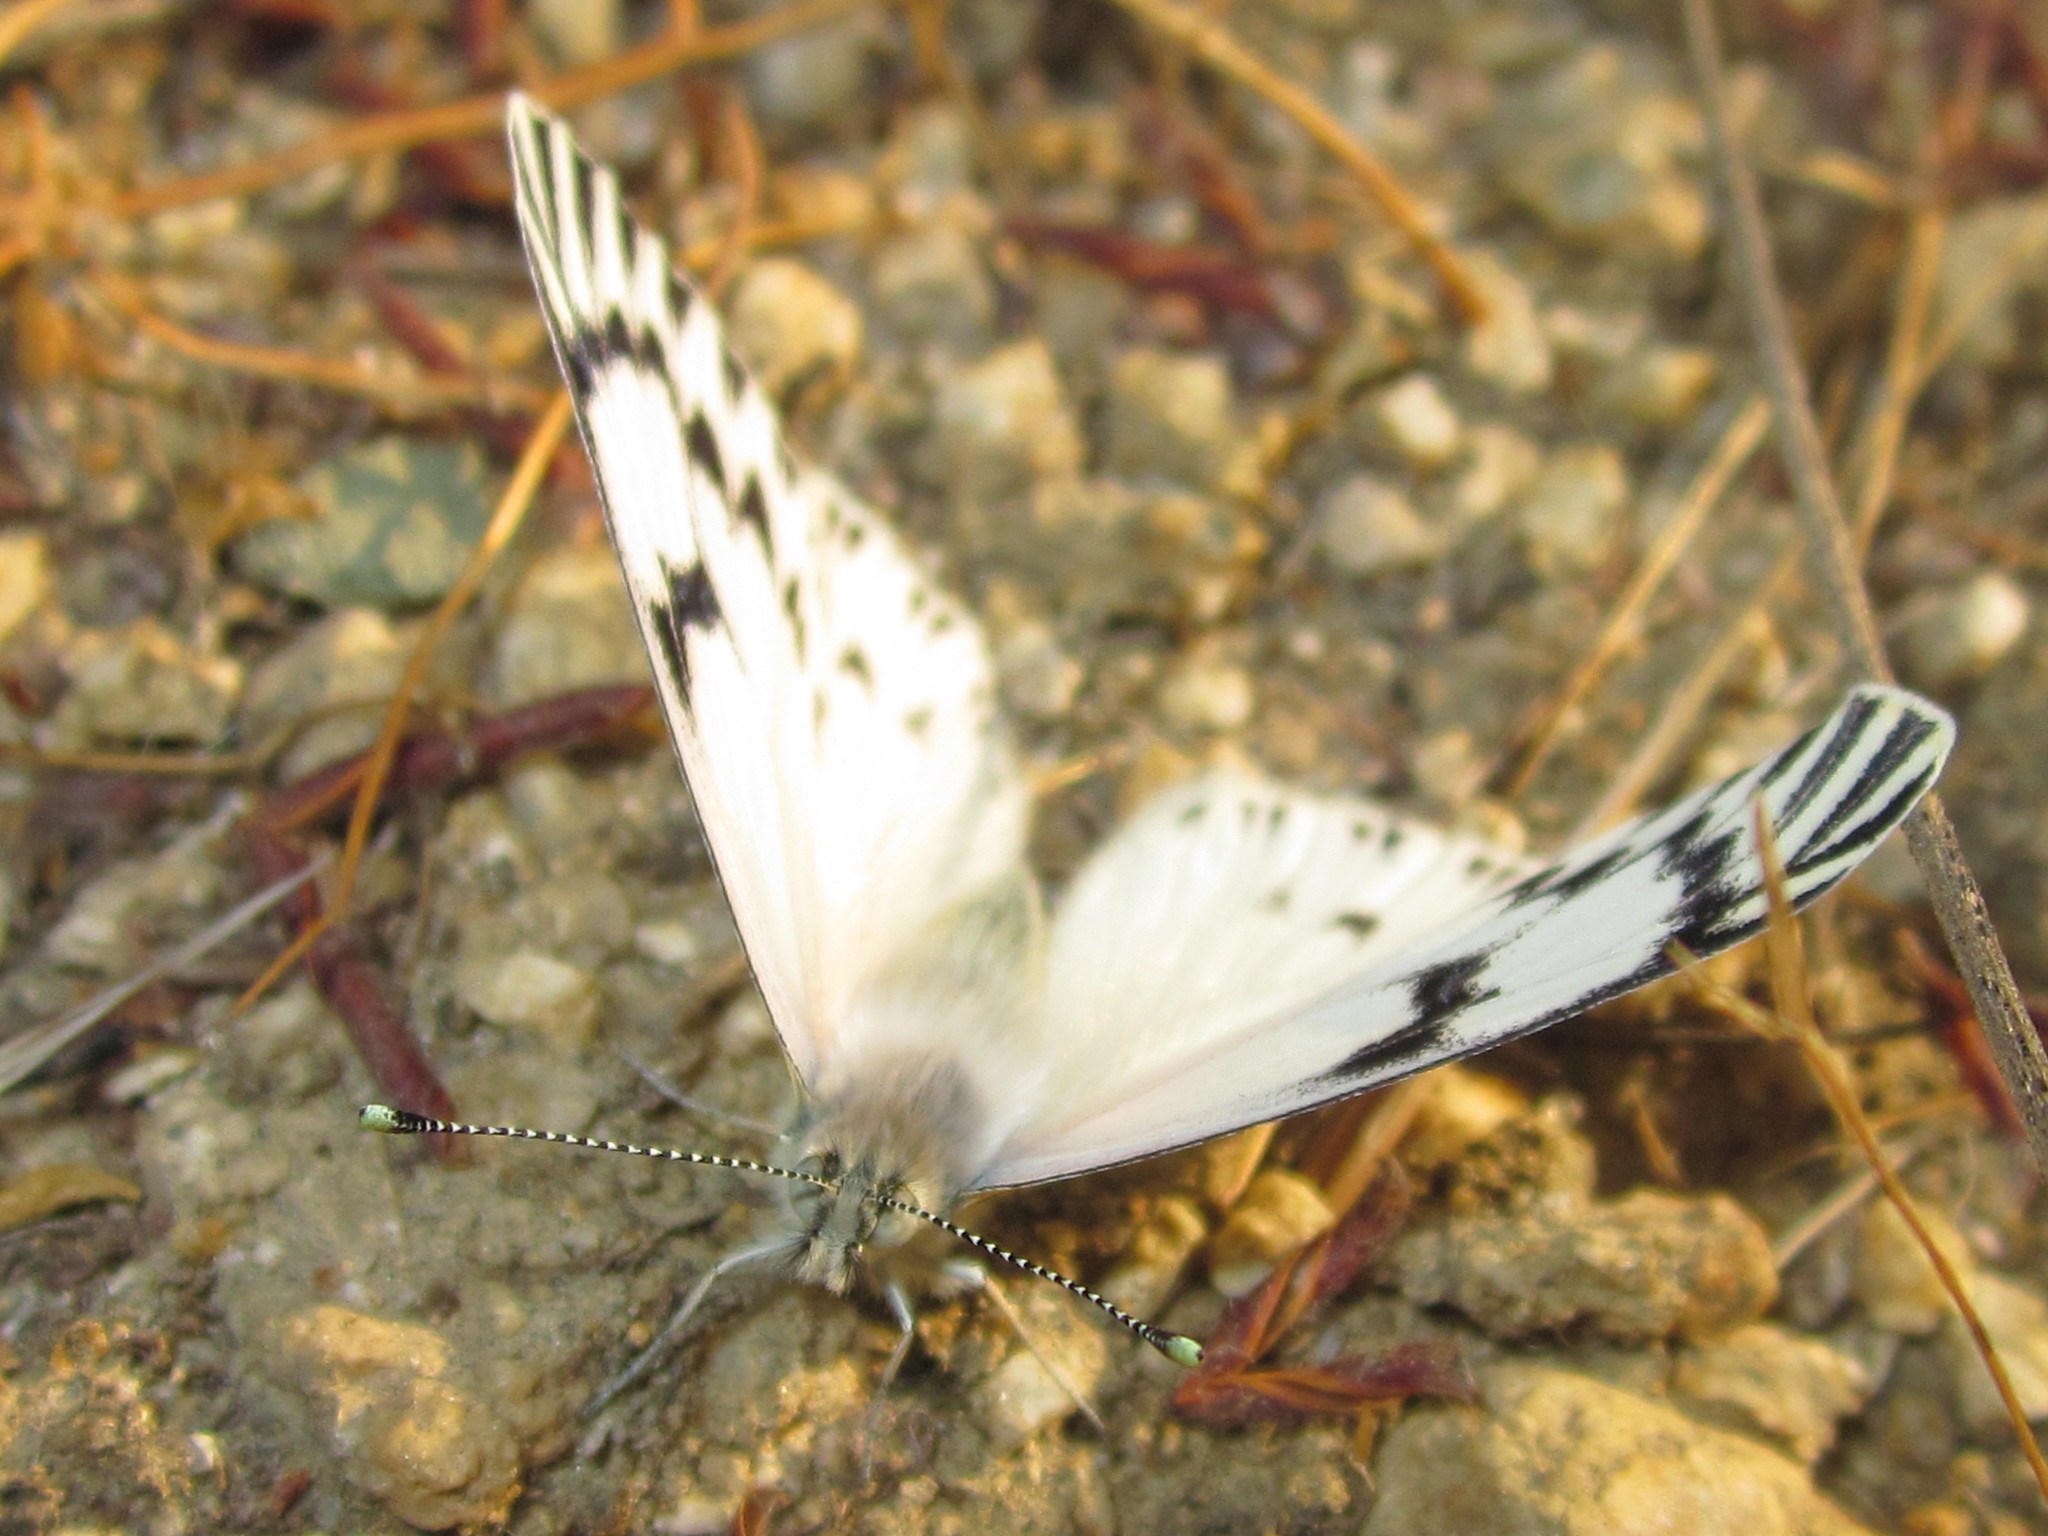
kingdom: Animalia
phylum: Arthropoda
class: Insecta
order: Lepidoptera
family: Pieridae
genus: Tatochila
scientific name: Tatochila mercedis
